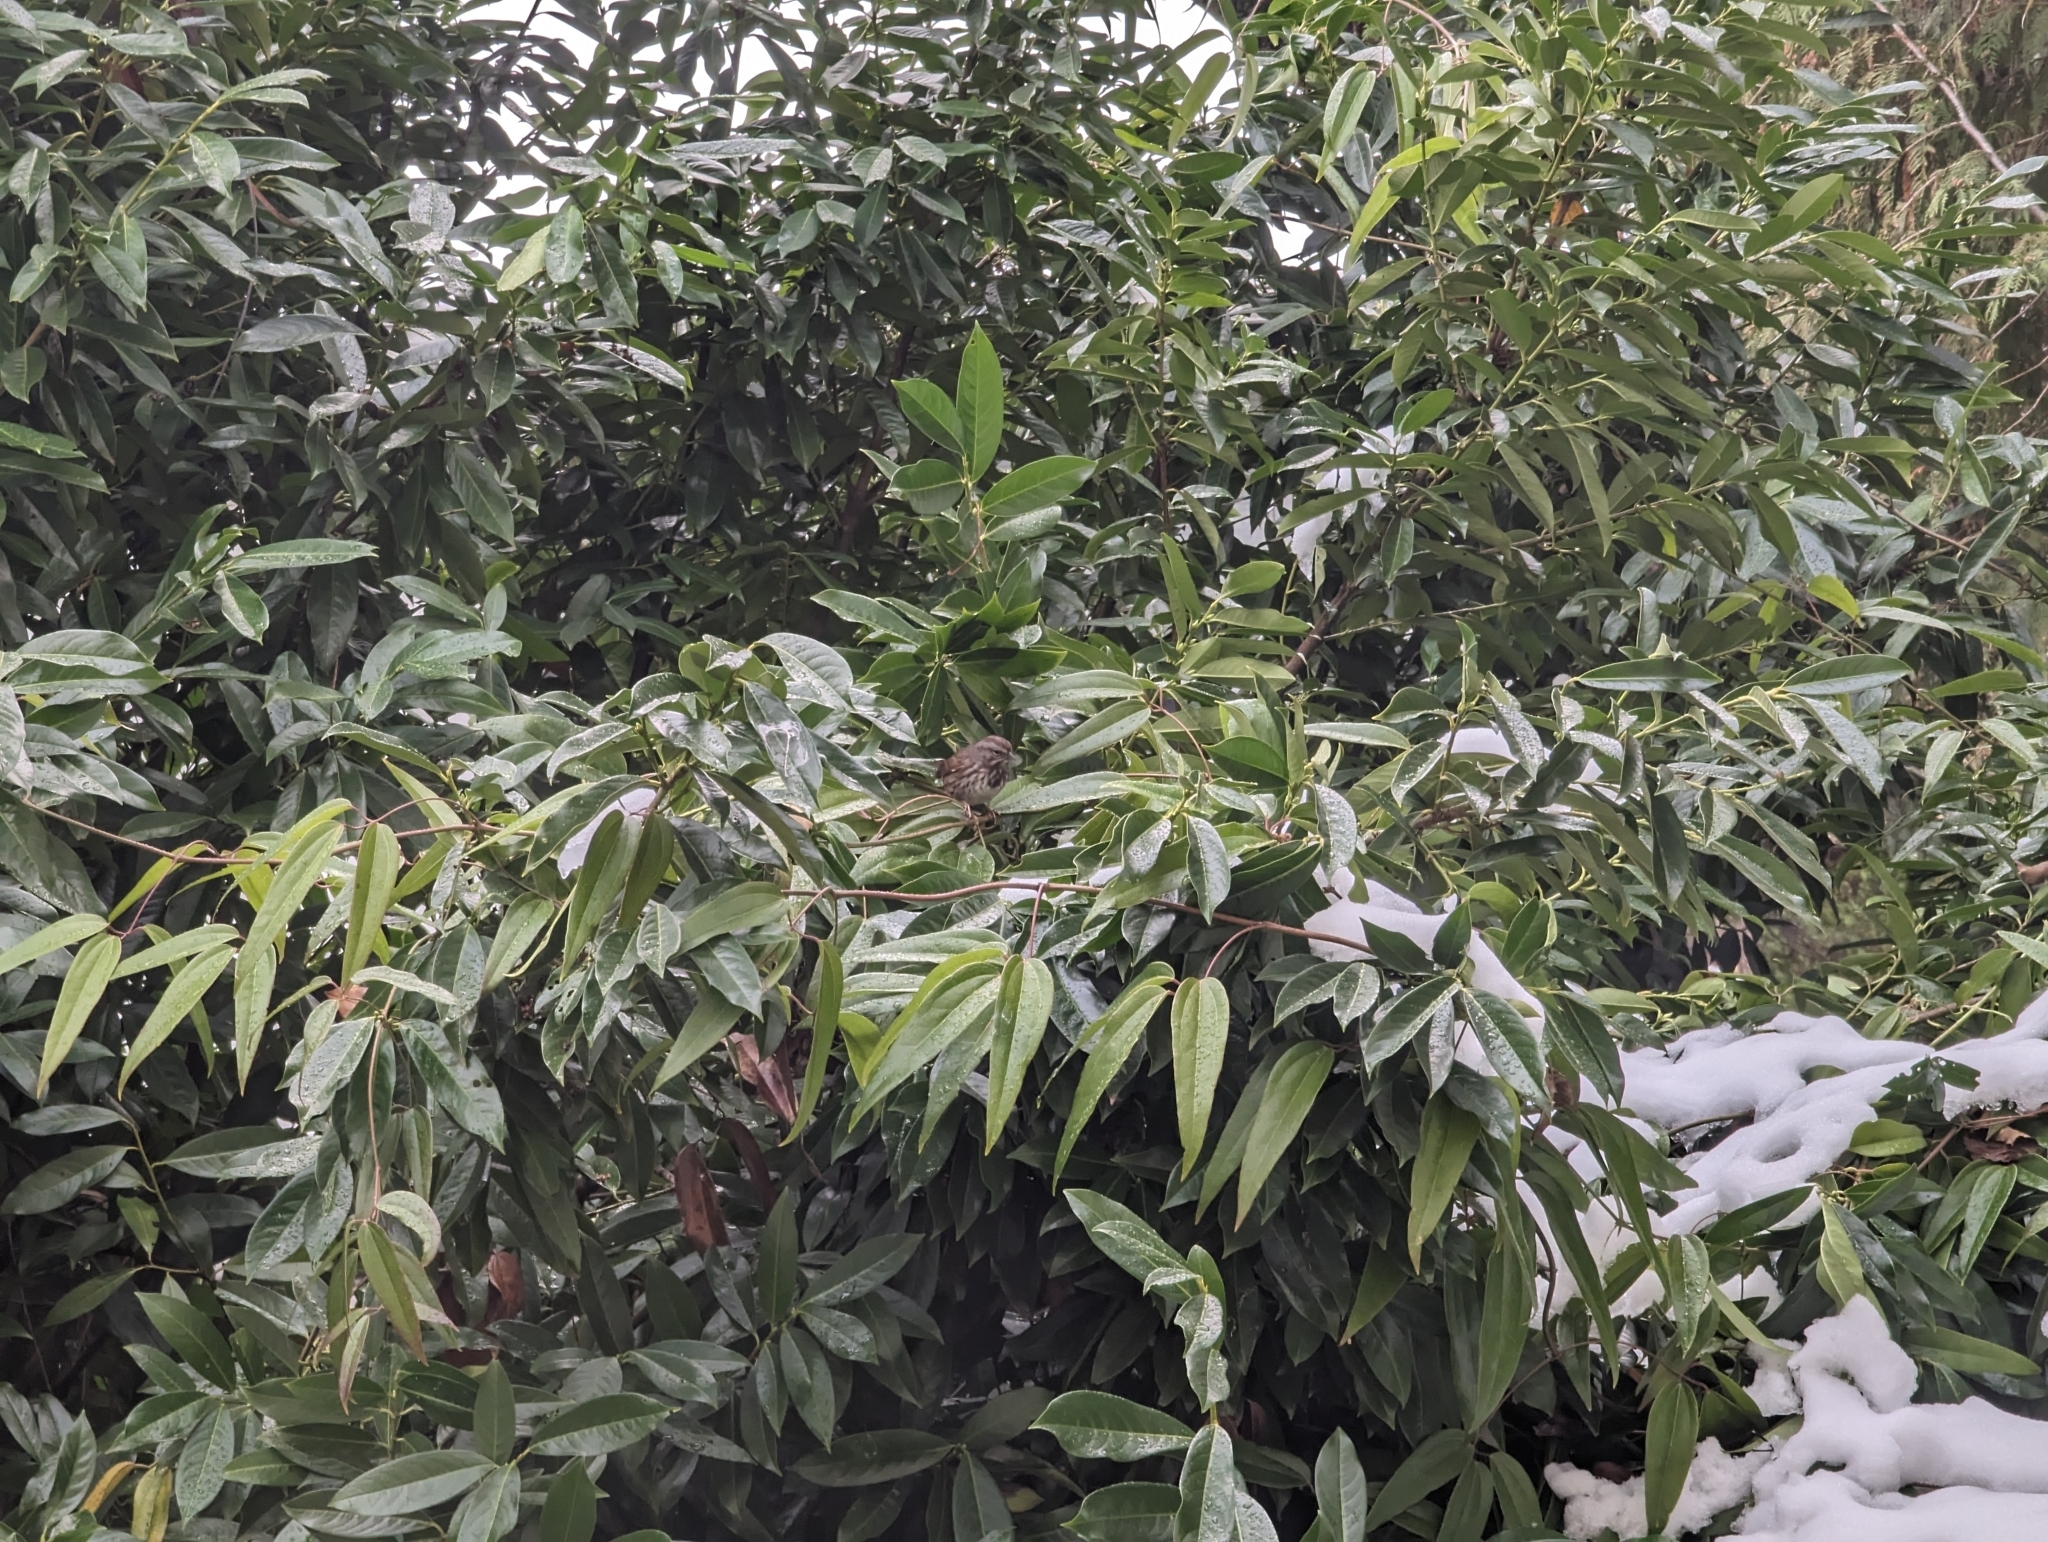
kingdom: Animalia
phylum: Chordata
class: Aves
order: Passeriformes
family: Passerellidae
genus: Melospiza
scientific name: Melospiza melodia
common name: Song sparrow
